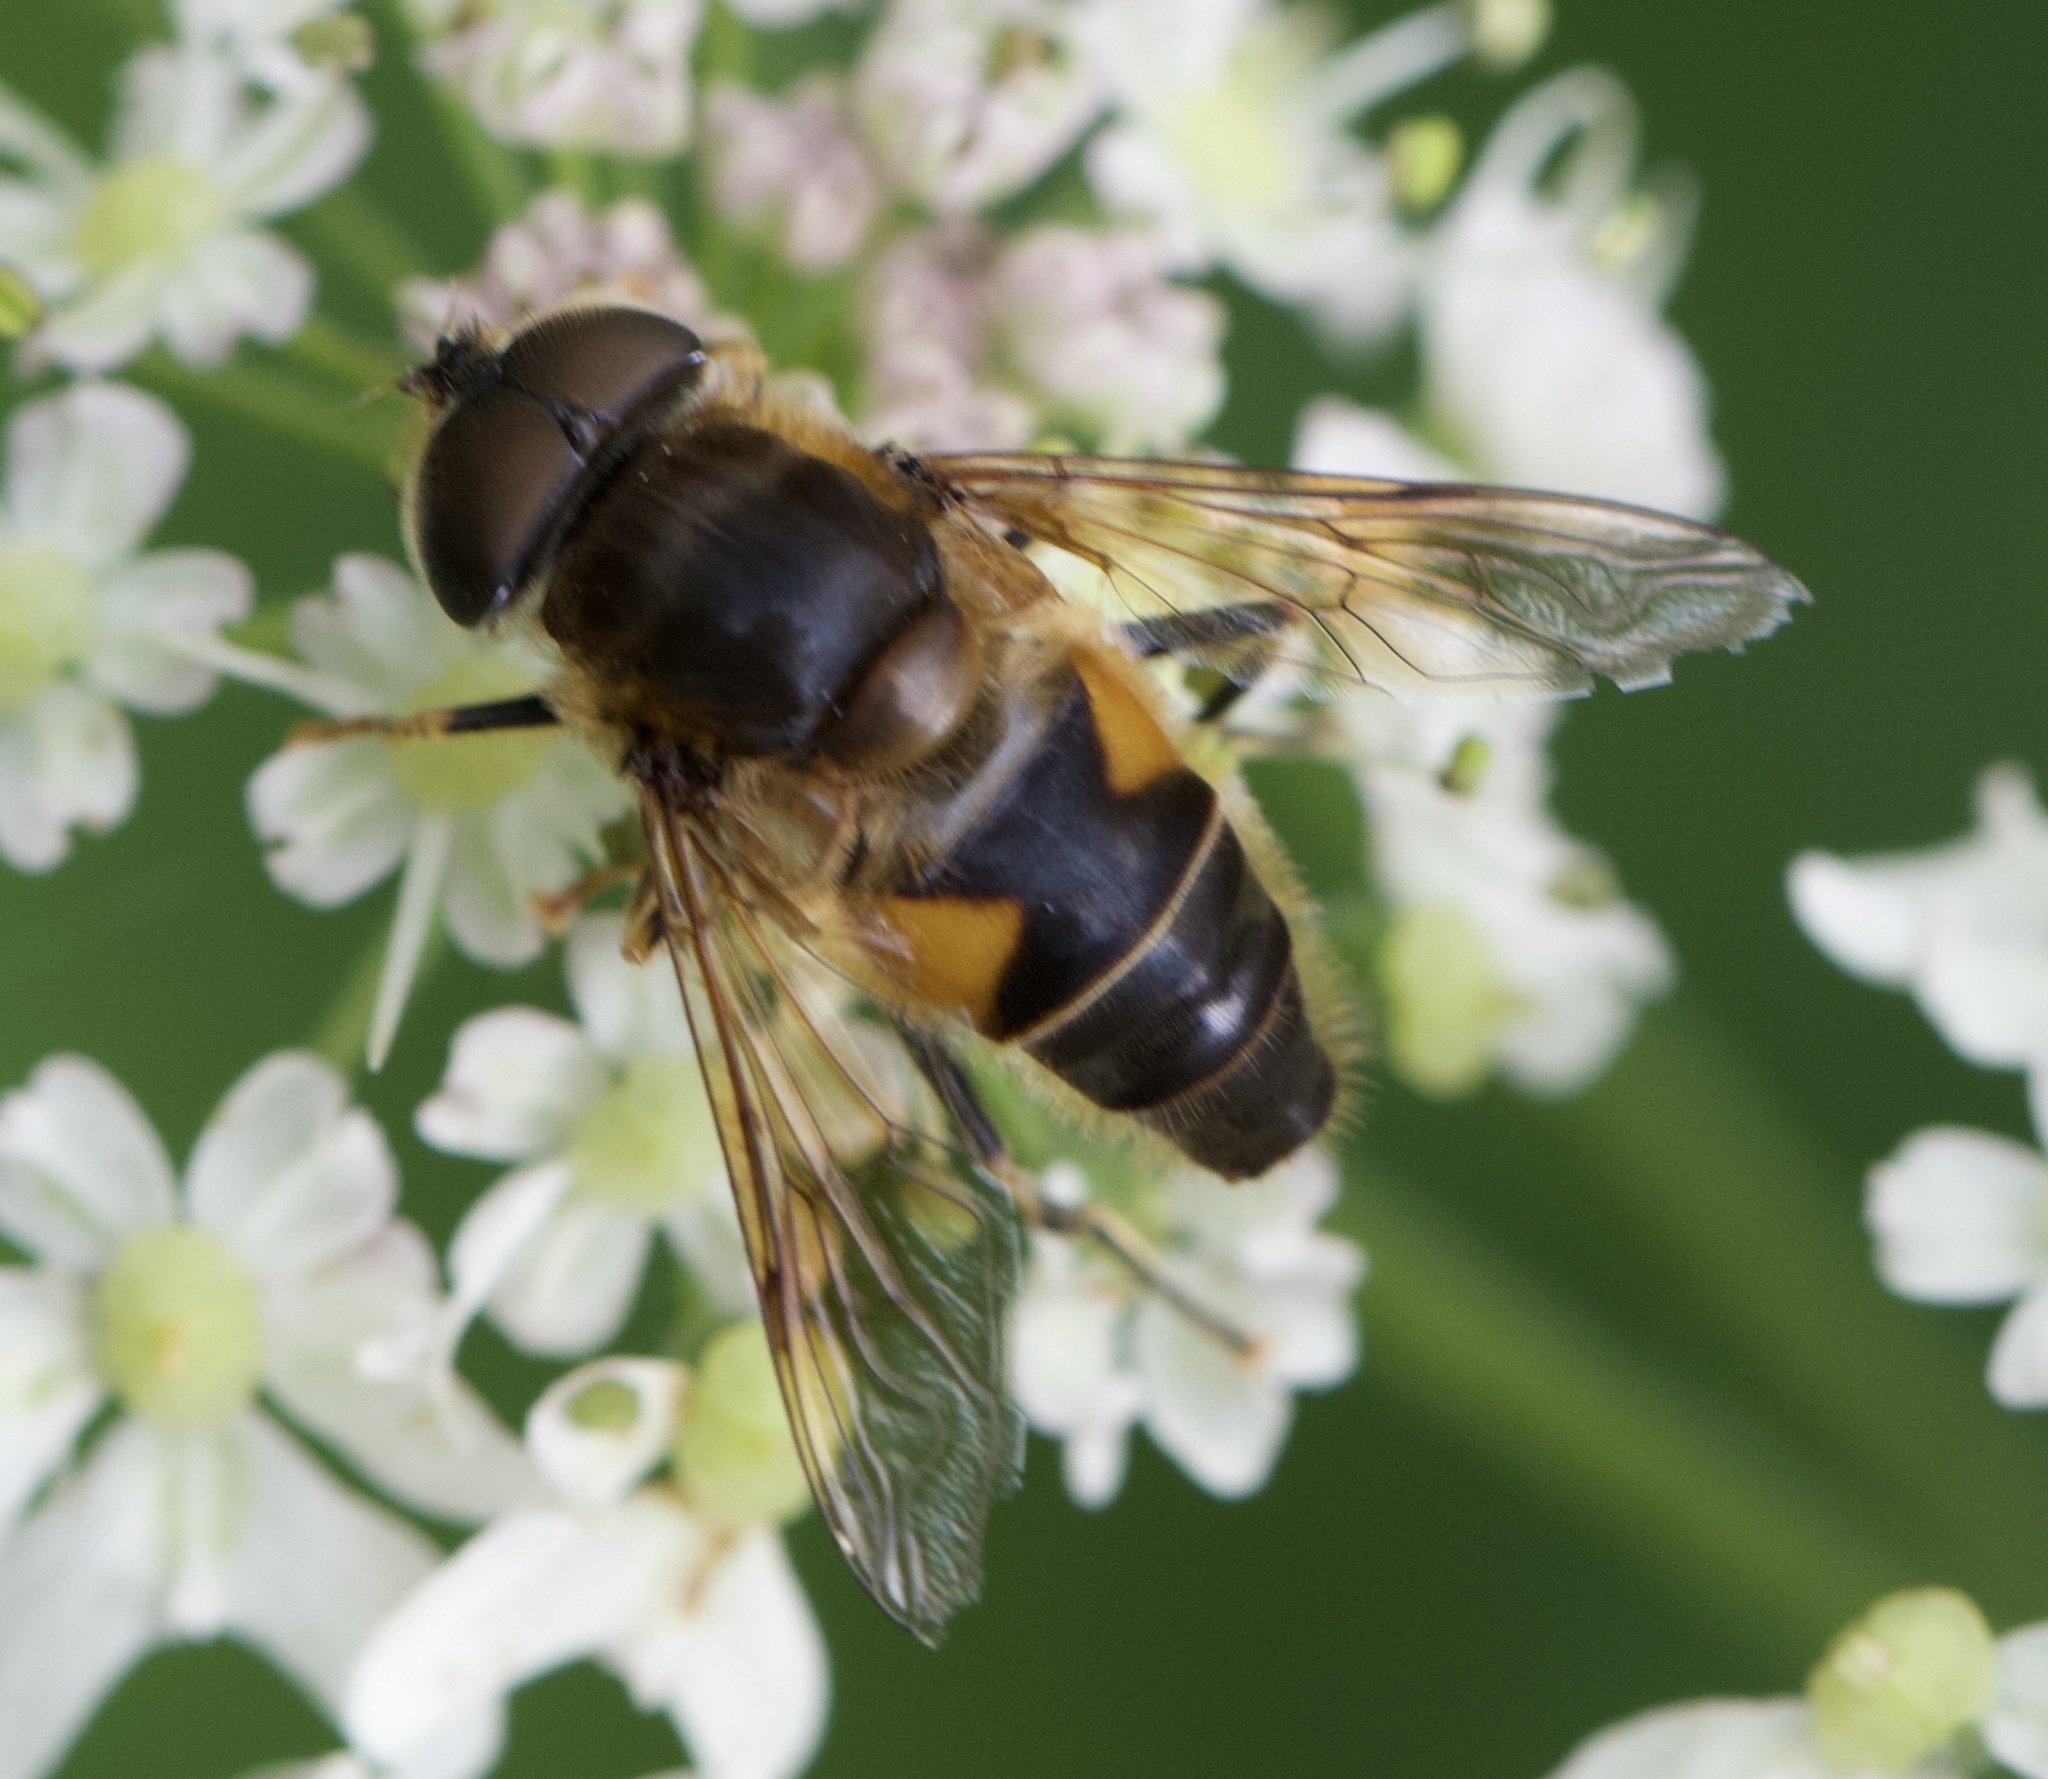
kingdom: Animalia
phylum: Arthropoda
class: Insecta
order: Diptera
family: Syrphidae
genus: Eristalis
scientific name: Eristalis pertinax
